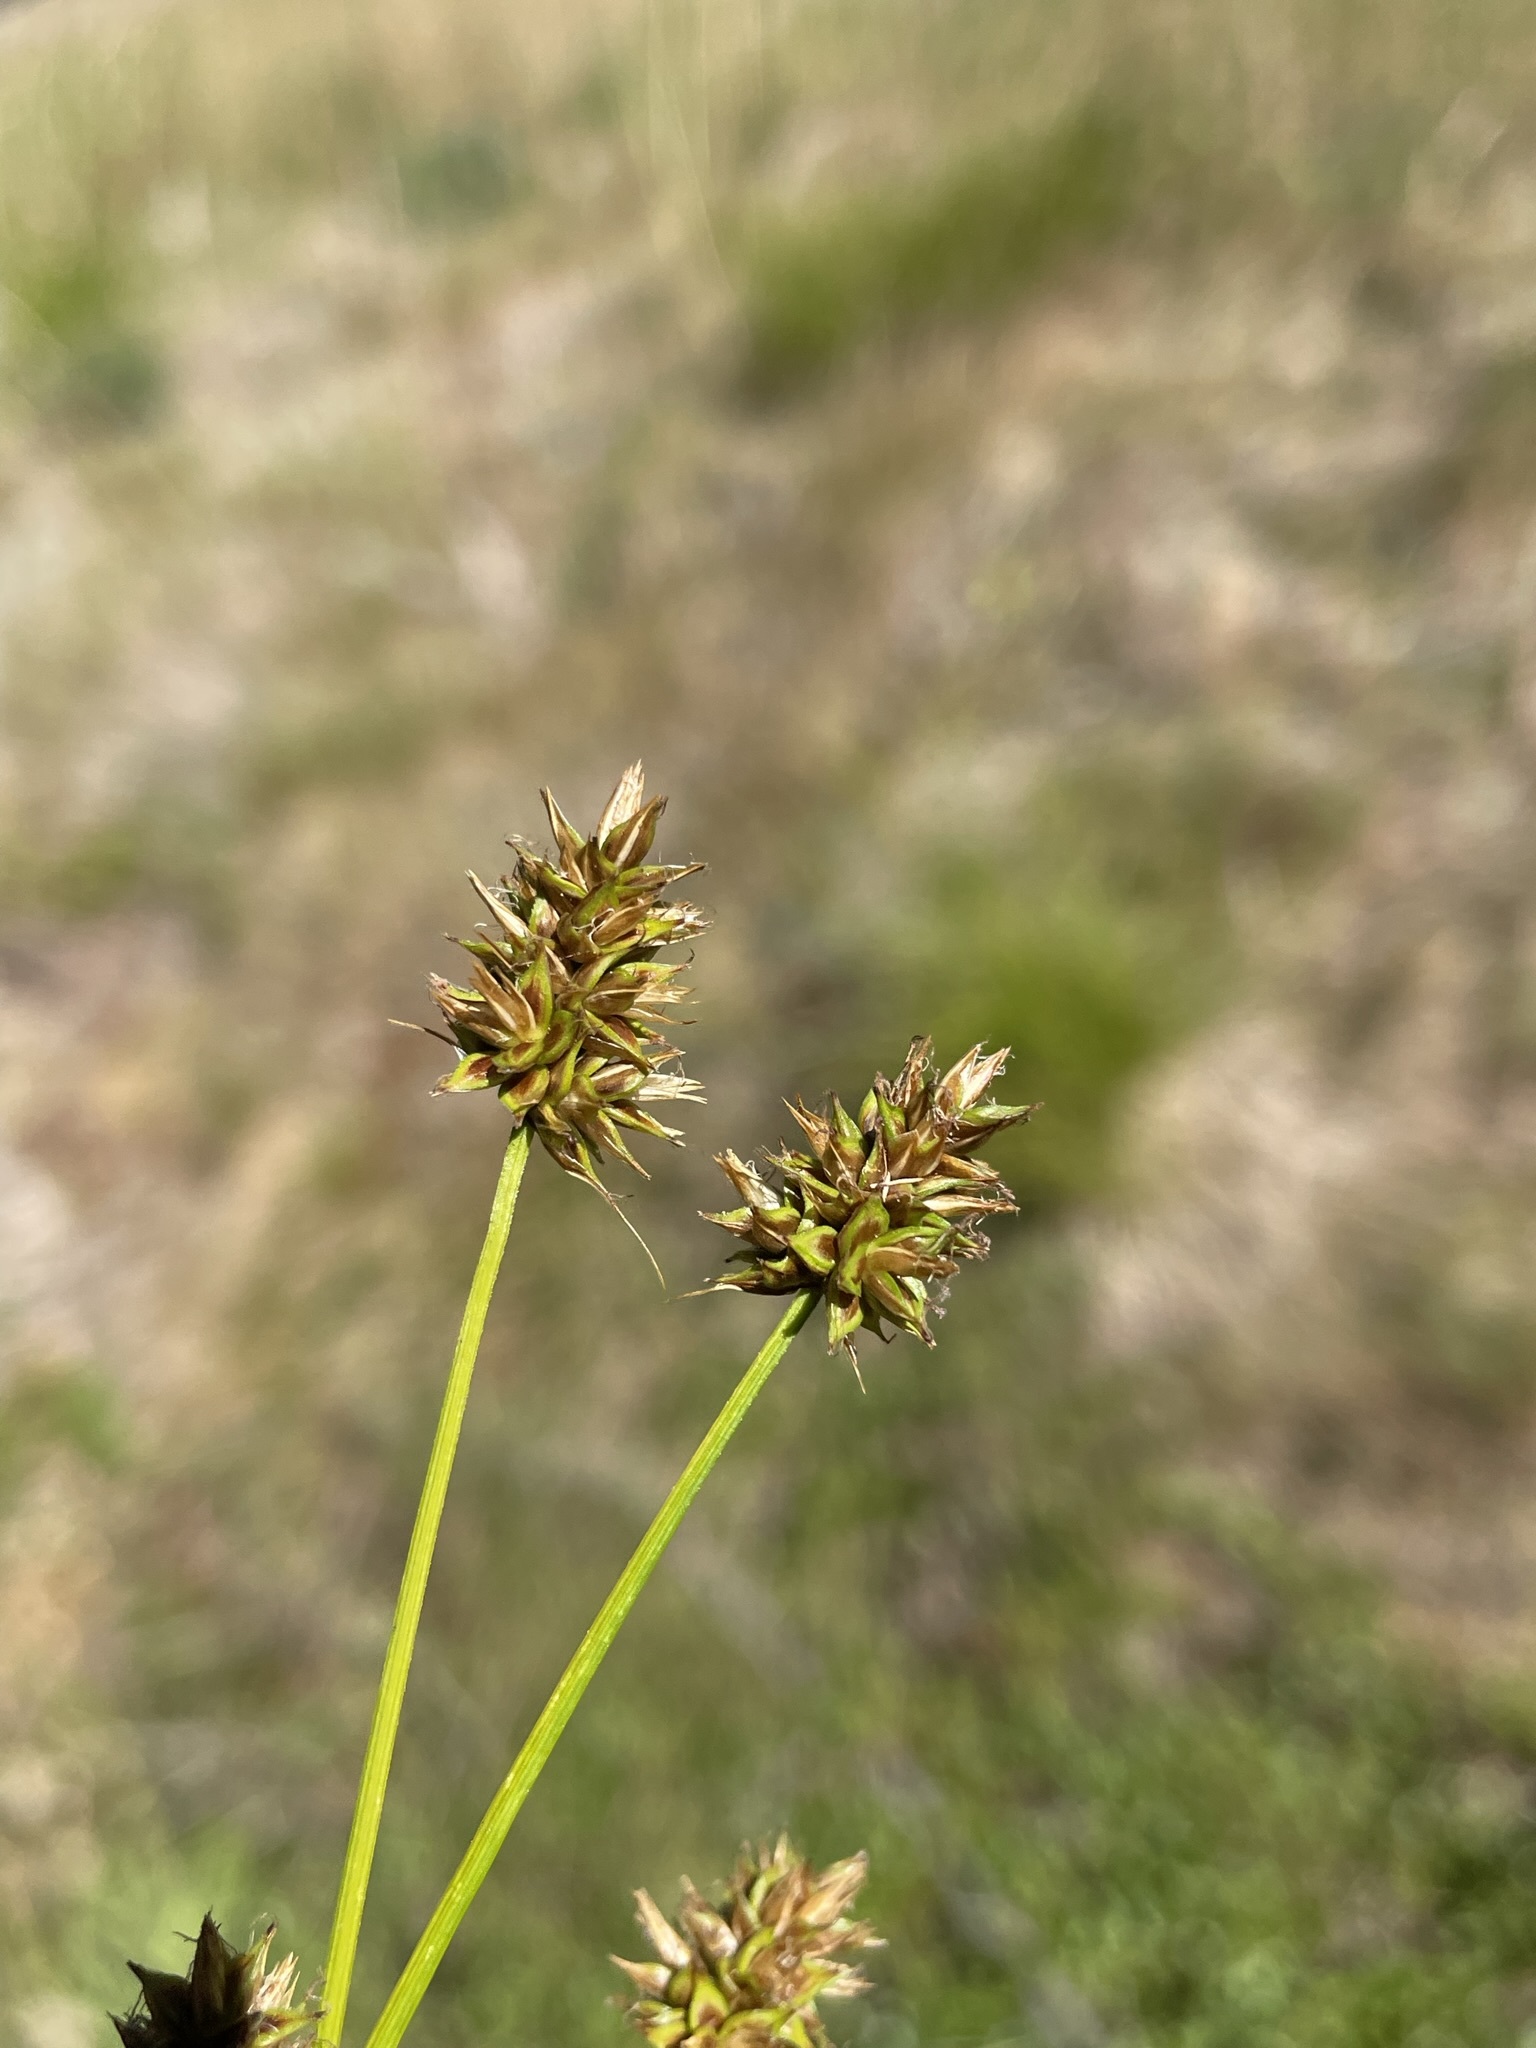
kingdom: Plantae
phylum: Tracheophyta
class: Liliopsida
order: Poales
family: Cyperaceae
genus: Carex
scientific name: Carex hoodii
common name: Hood's sedge
